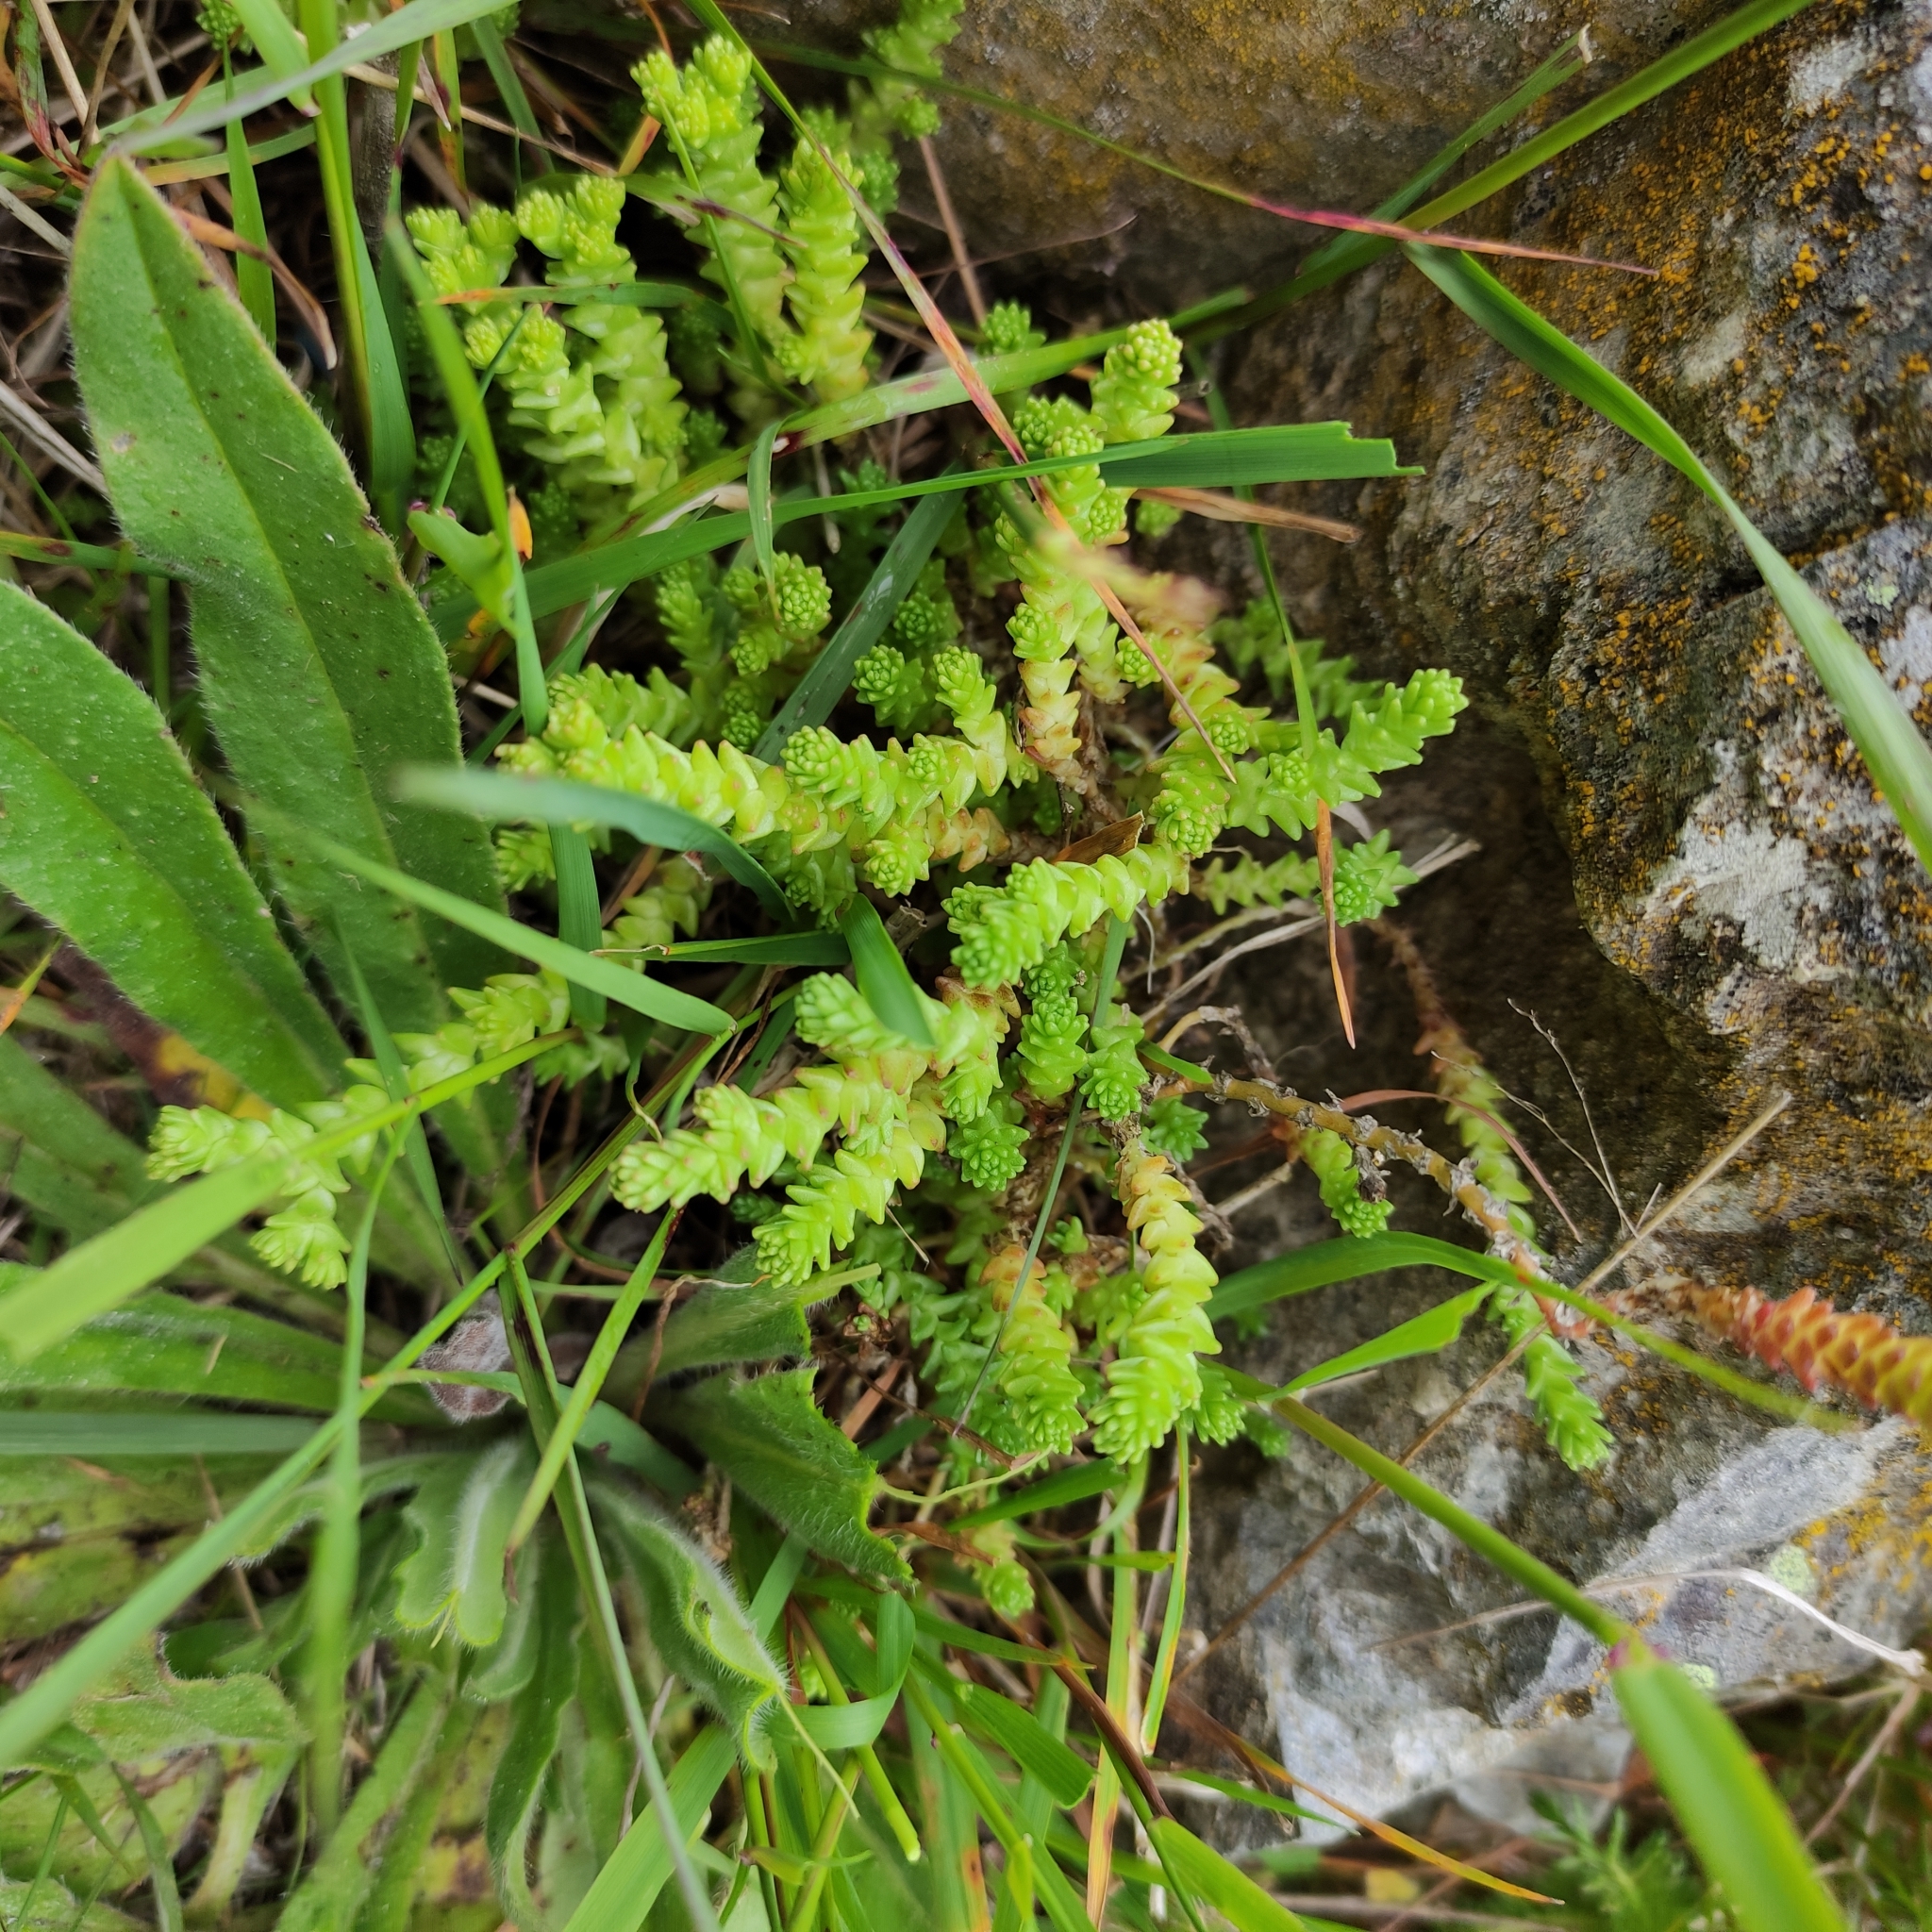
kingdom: Plantae
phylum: Tracheophyta
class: Magnoliopsida
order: Saxifragales
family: Crassulaceae
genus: Sedum
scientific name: Sedum acre
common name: Biting stonecrop
